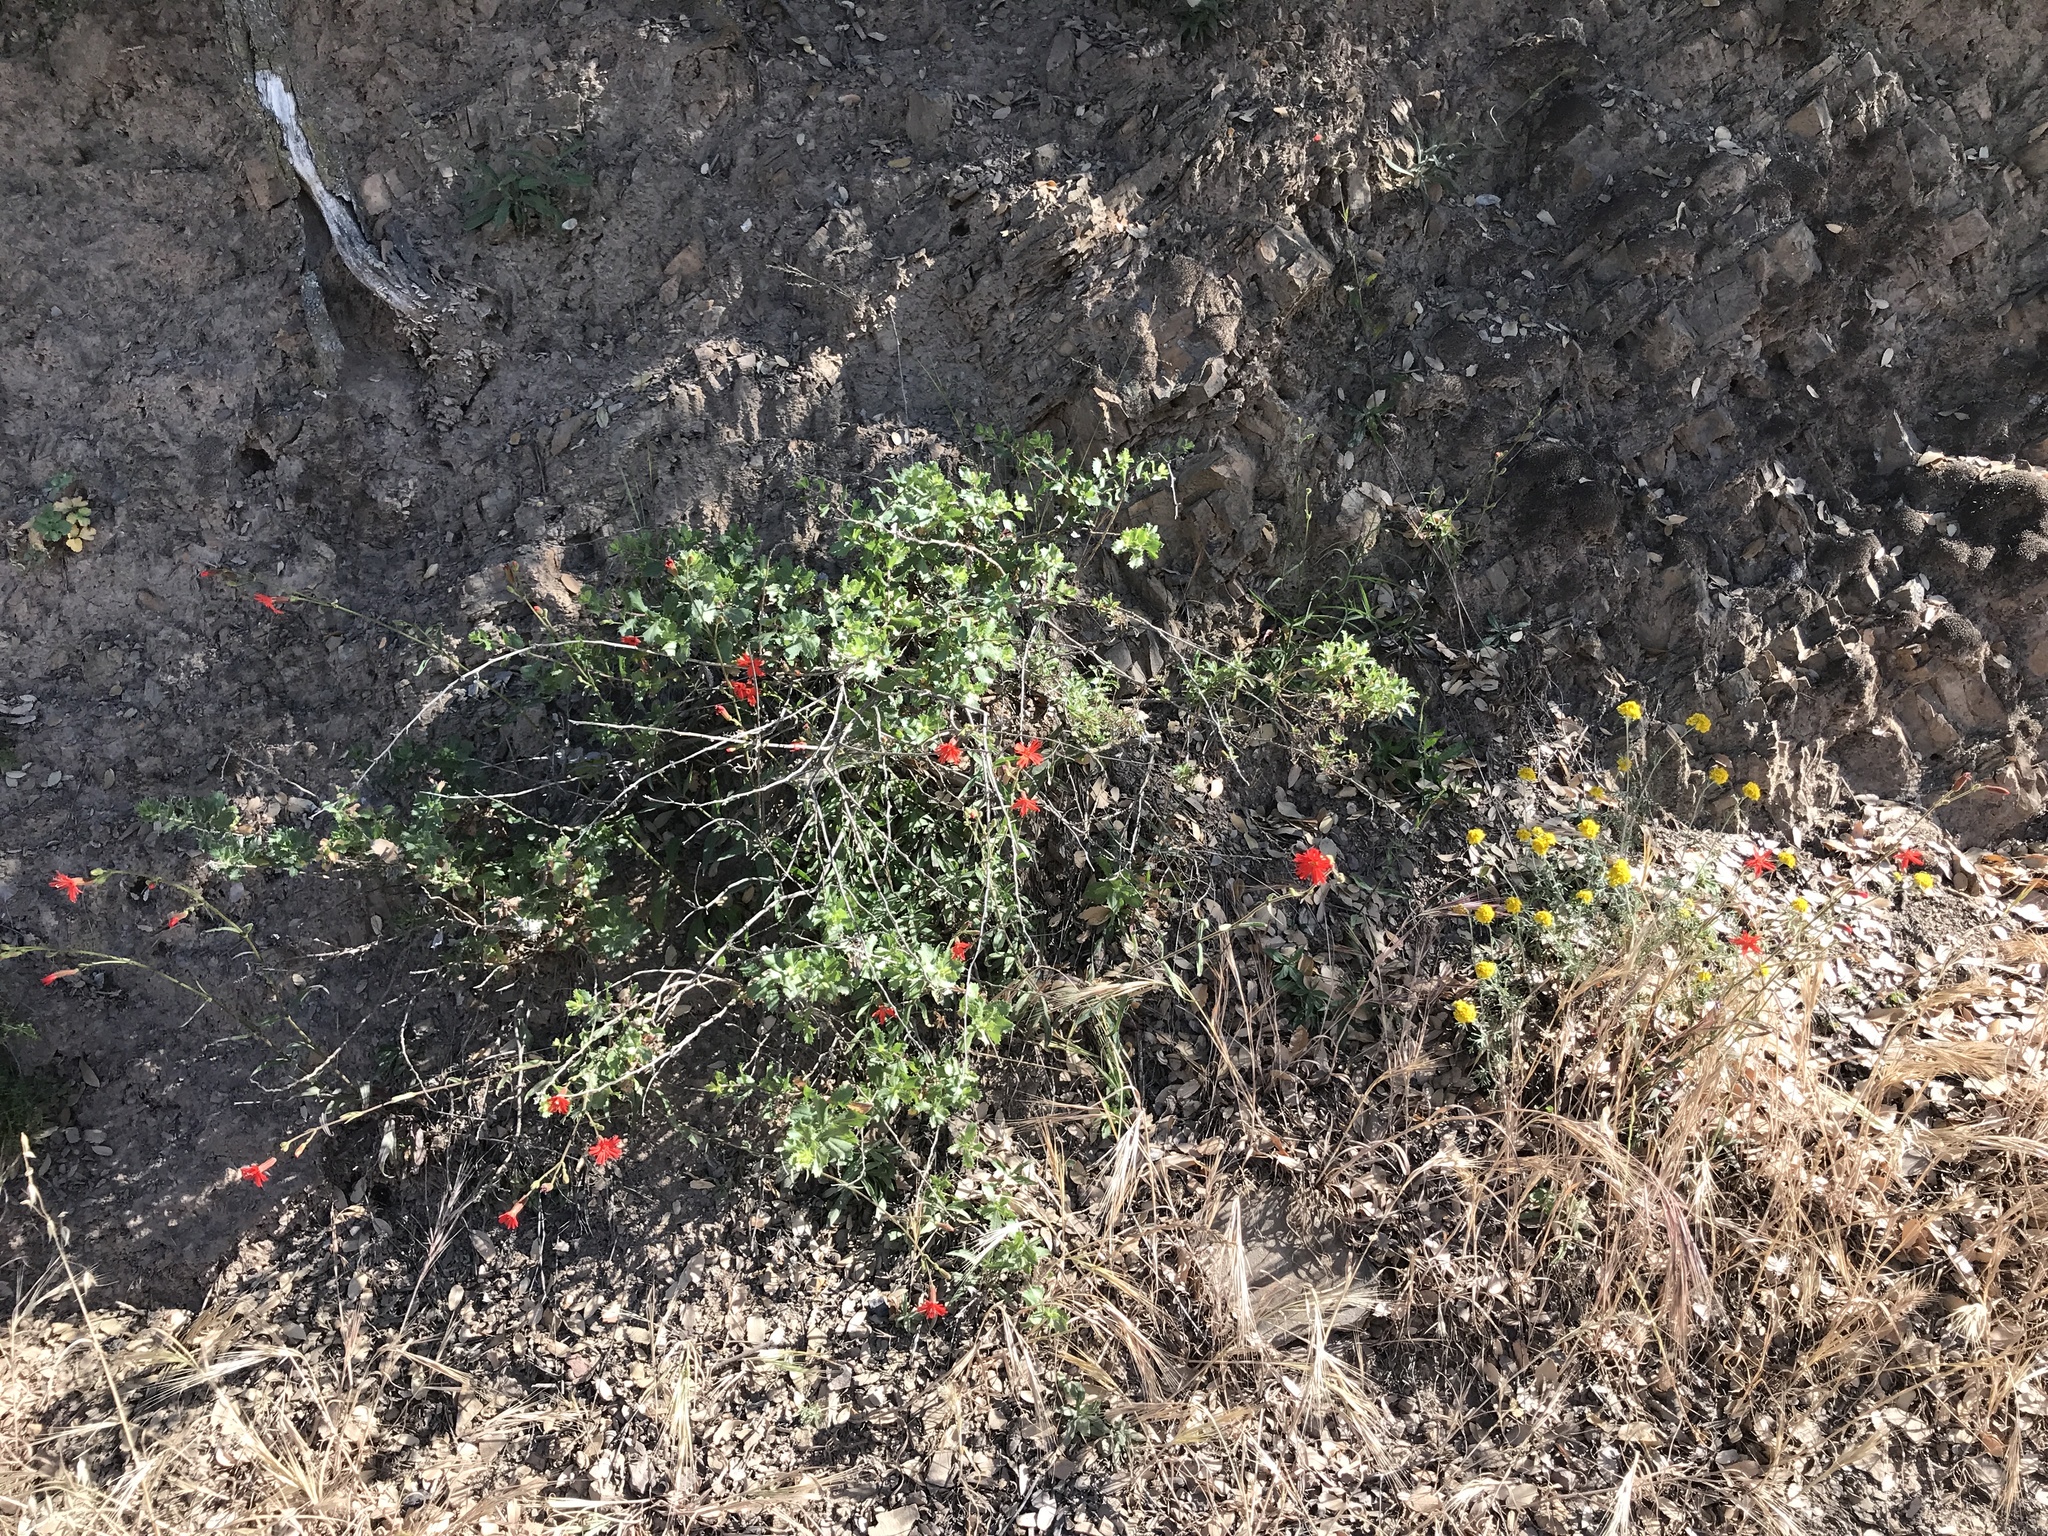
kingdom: Plantae
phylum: Tracheophyta
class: Magnoliopsida
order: Caryophyllales
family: Caryophyllaceae
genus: Silene
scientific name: Silene laciniata
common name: Indian-pink
